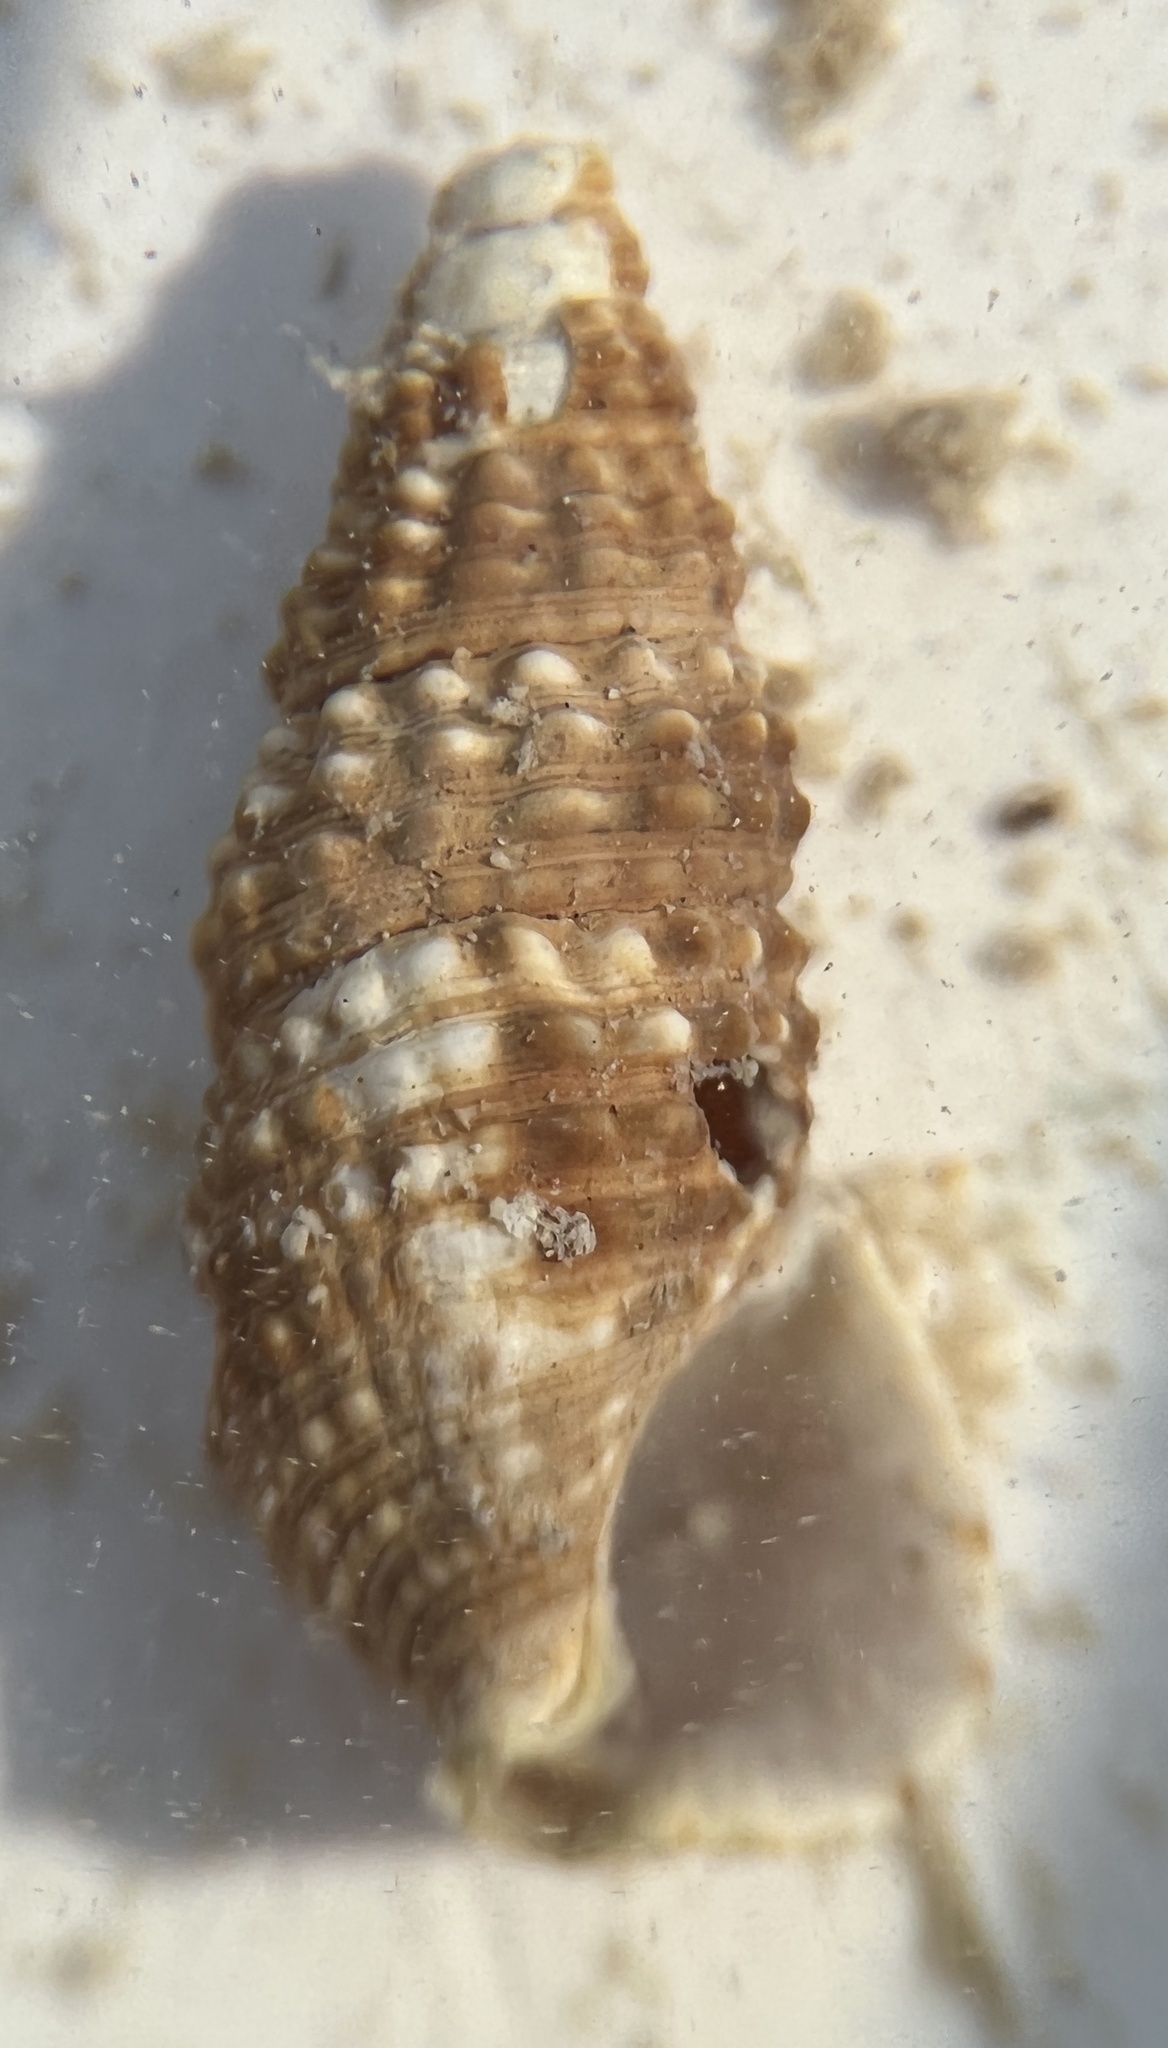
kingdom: Animalia
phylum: Mollusca
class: Gastropoda
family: Cerithiidae
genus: Cerithium
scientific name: Cerithium lutosum
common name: Dwarf atlantic cerith
